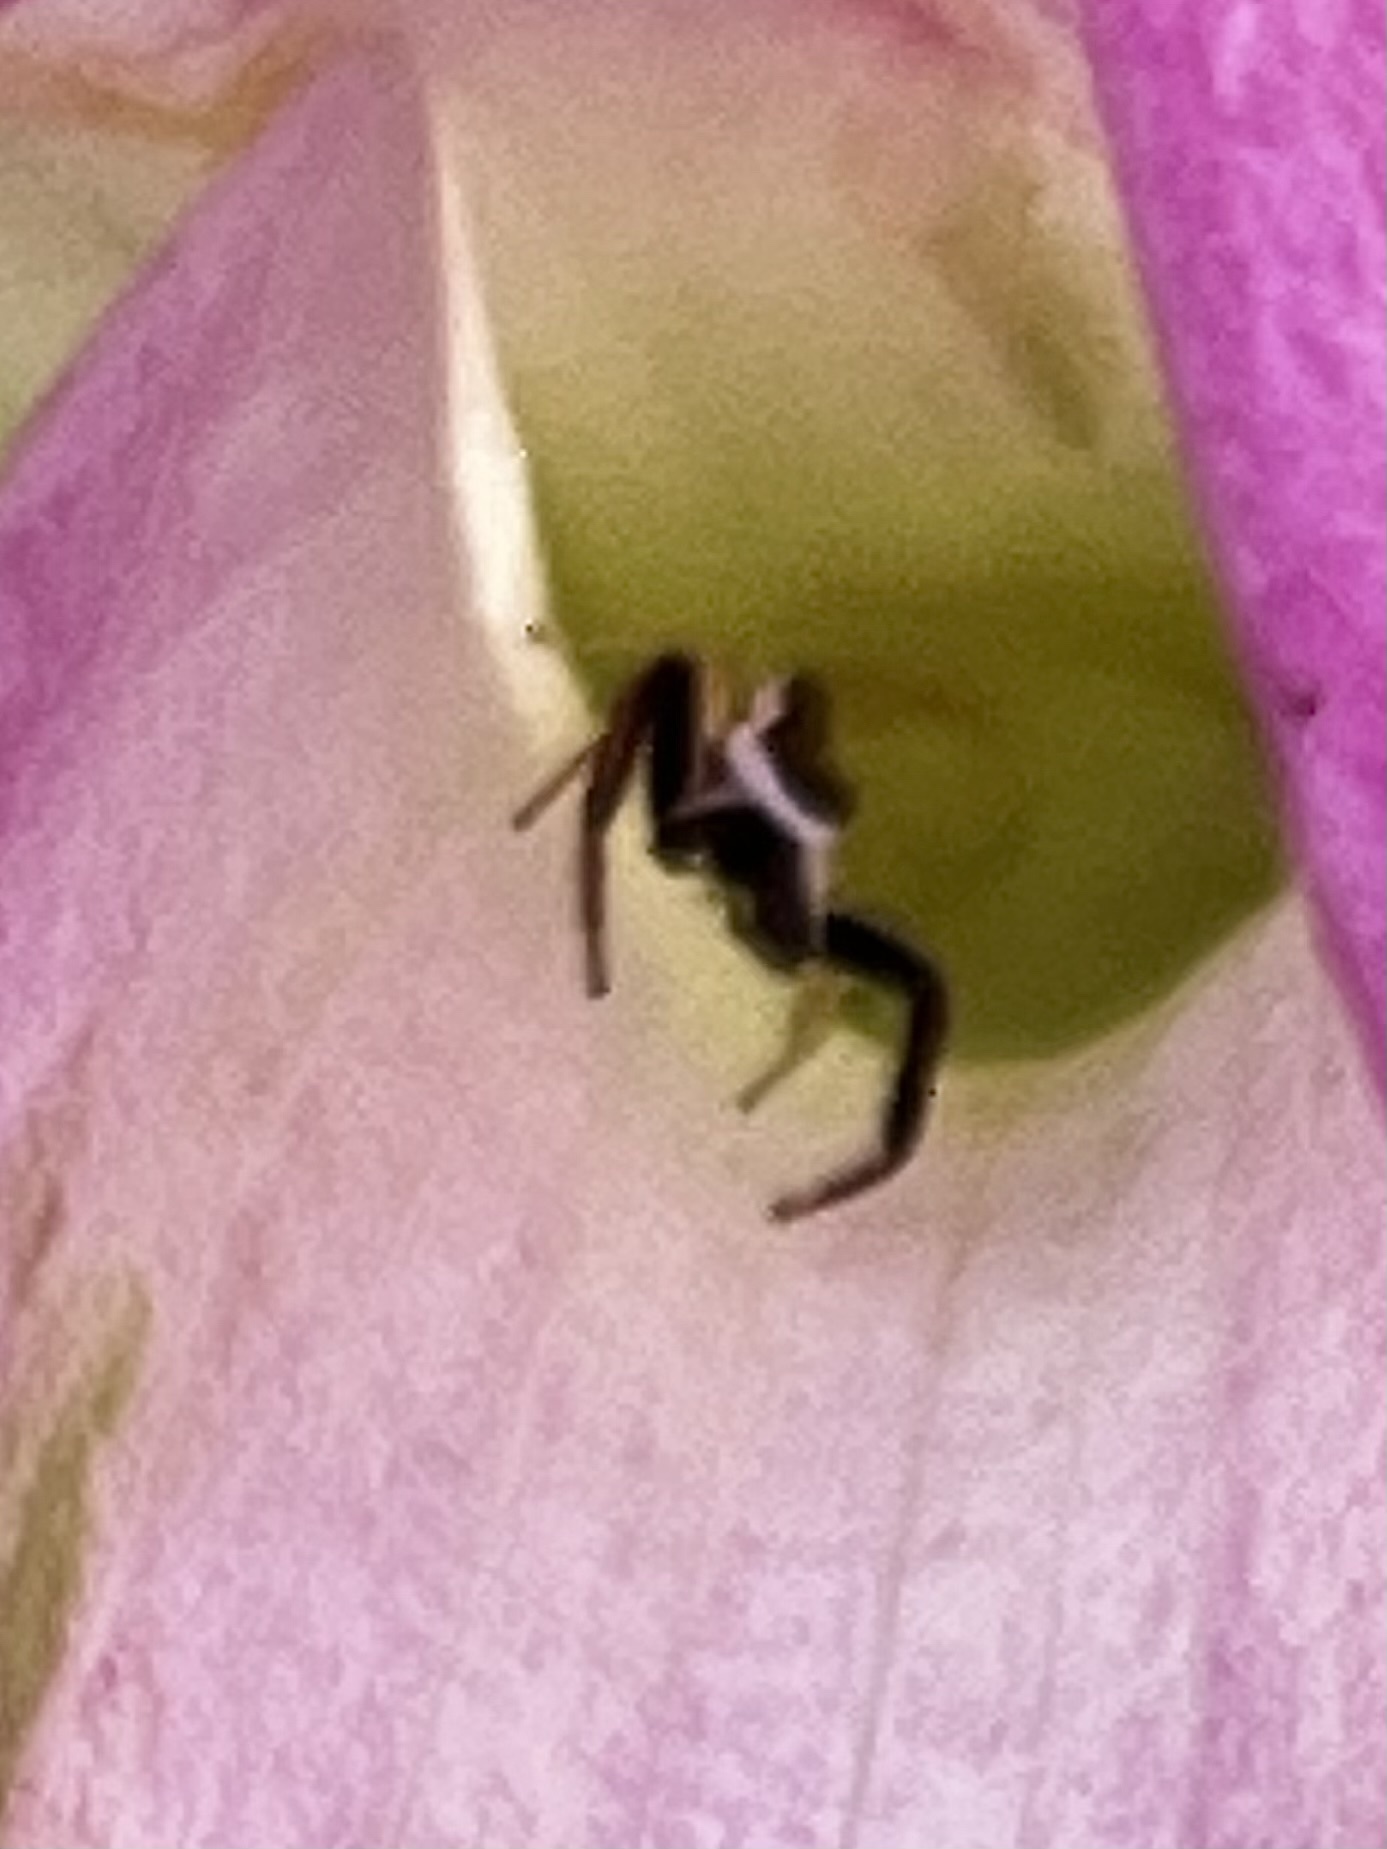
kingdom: Animalia
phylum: Arthropoda
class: Arachnida
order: Araneae
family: Salticidae
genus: Hentzia
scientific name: Hentzia palmarum
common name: Common hentz jumping spider
